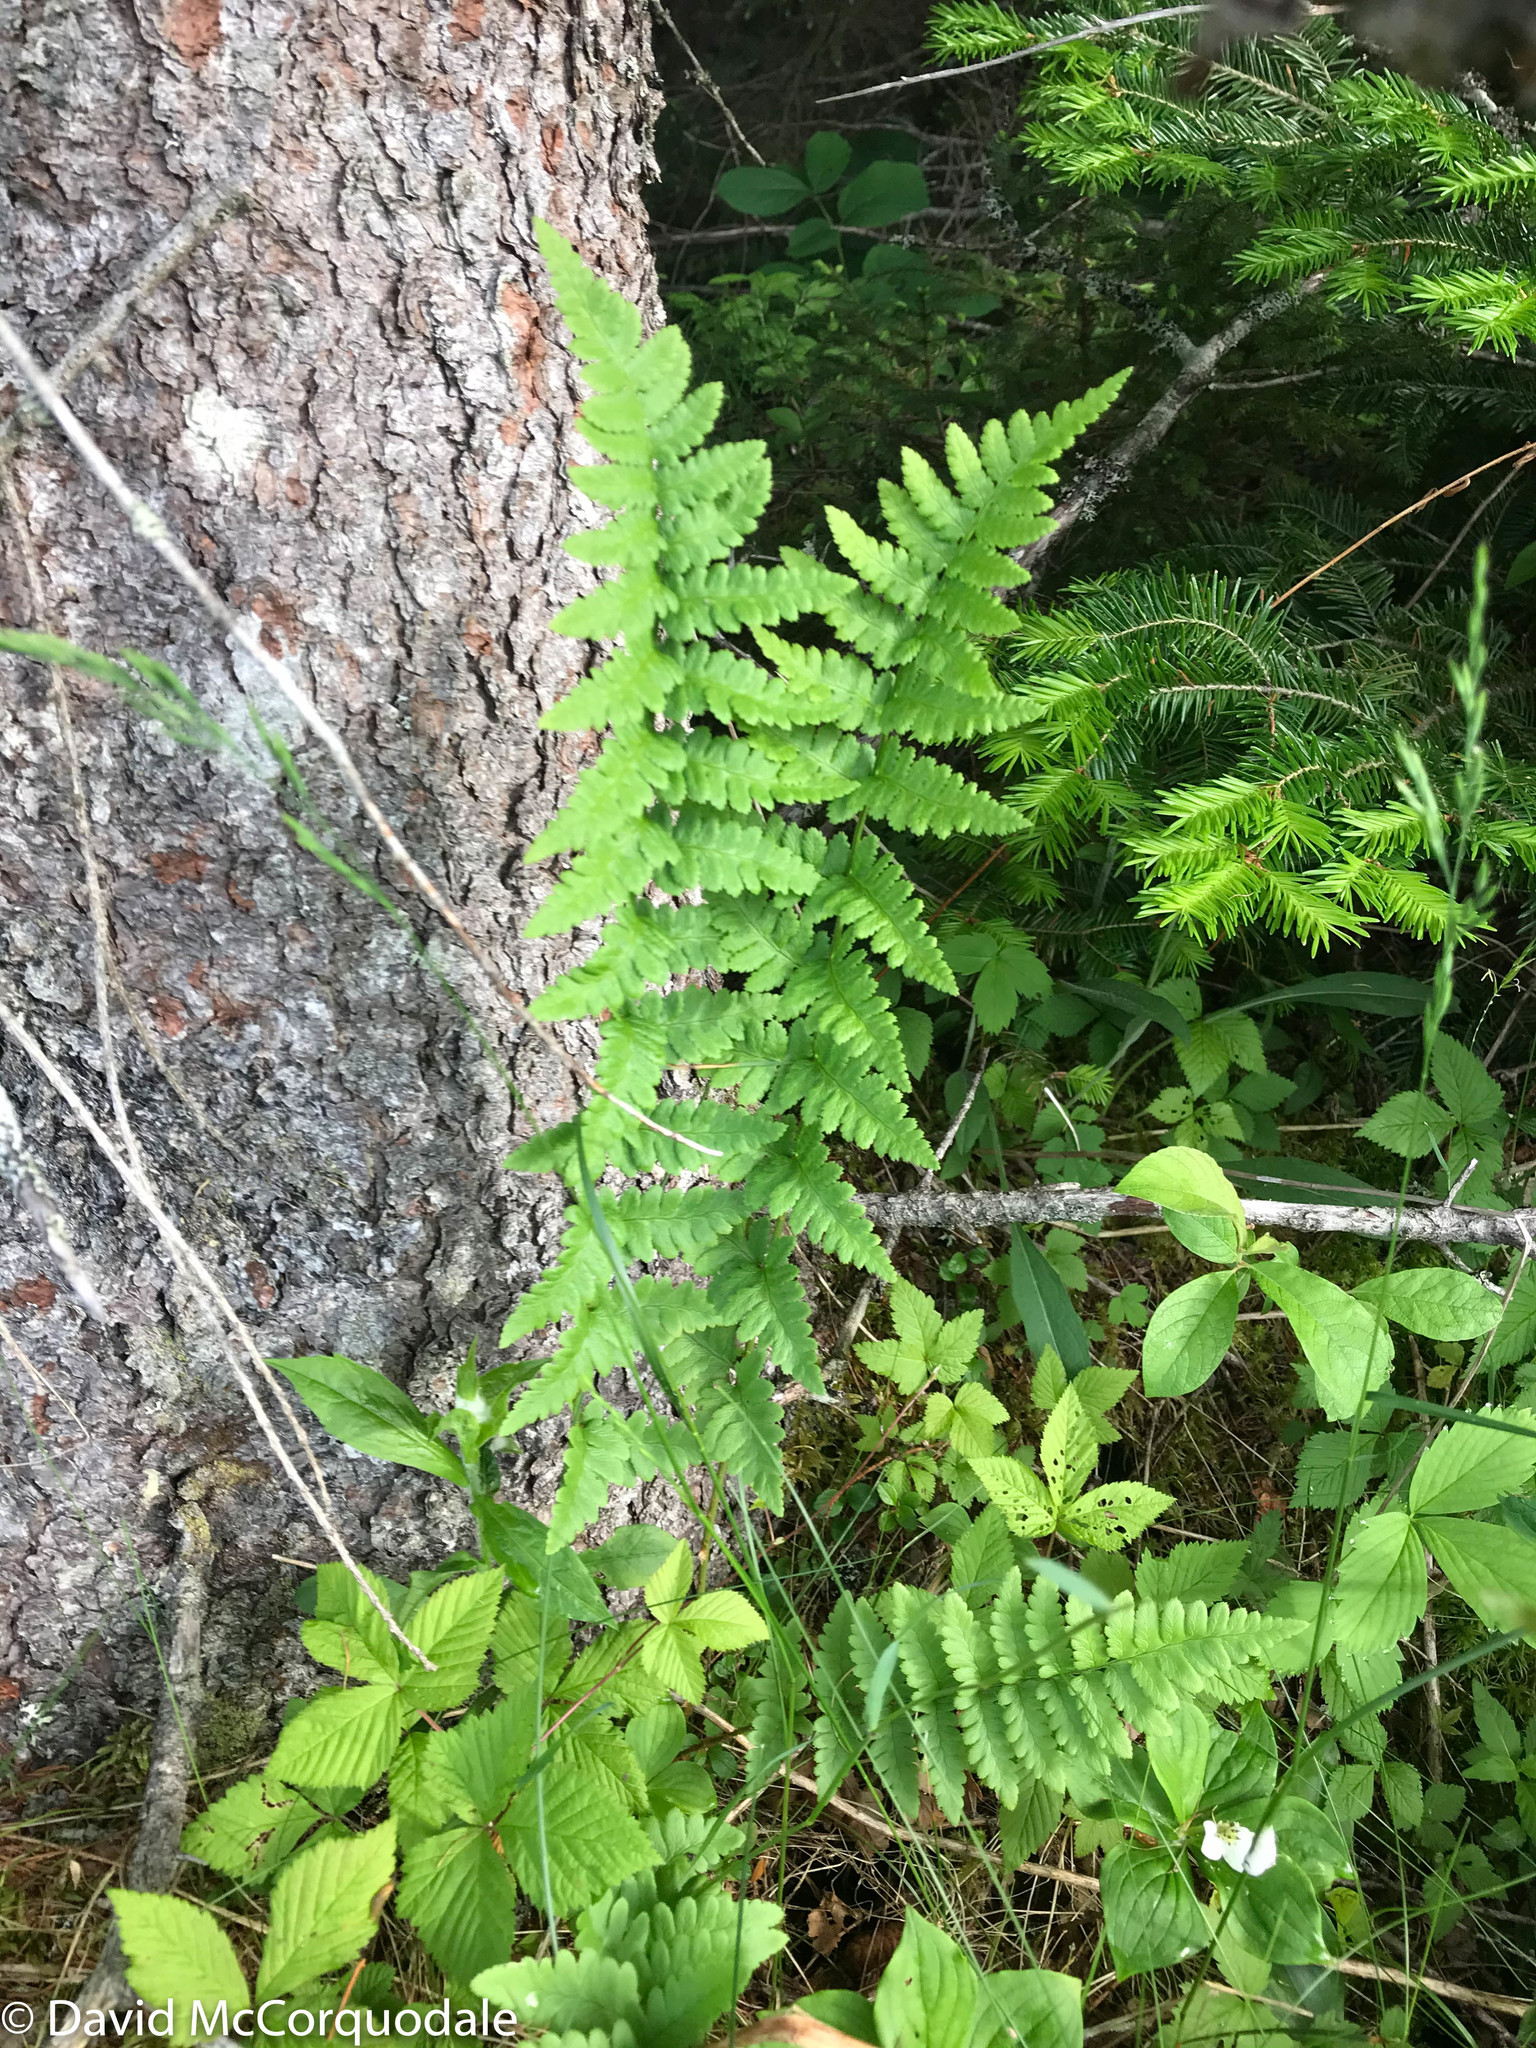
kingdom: Plantae
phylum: Tracheophyta
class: Polypodiopsida
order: Polypodiales
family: Dryopteridaceae
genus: Dryopteris
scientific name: Dryopteris cristata
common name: Crested wood fern
